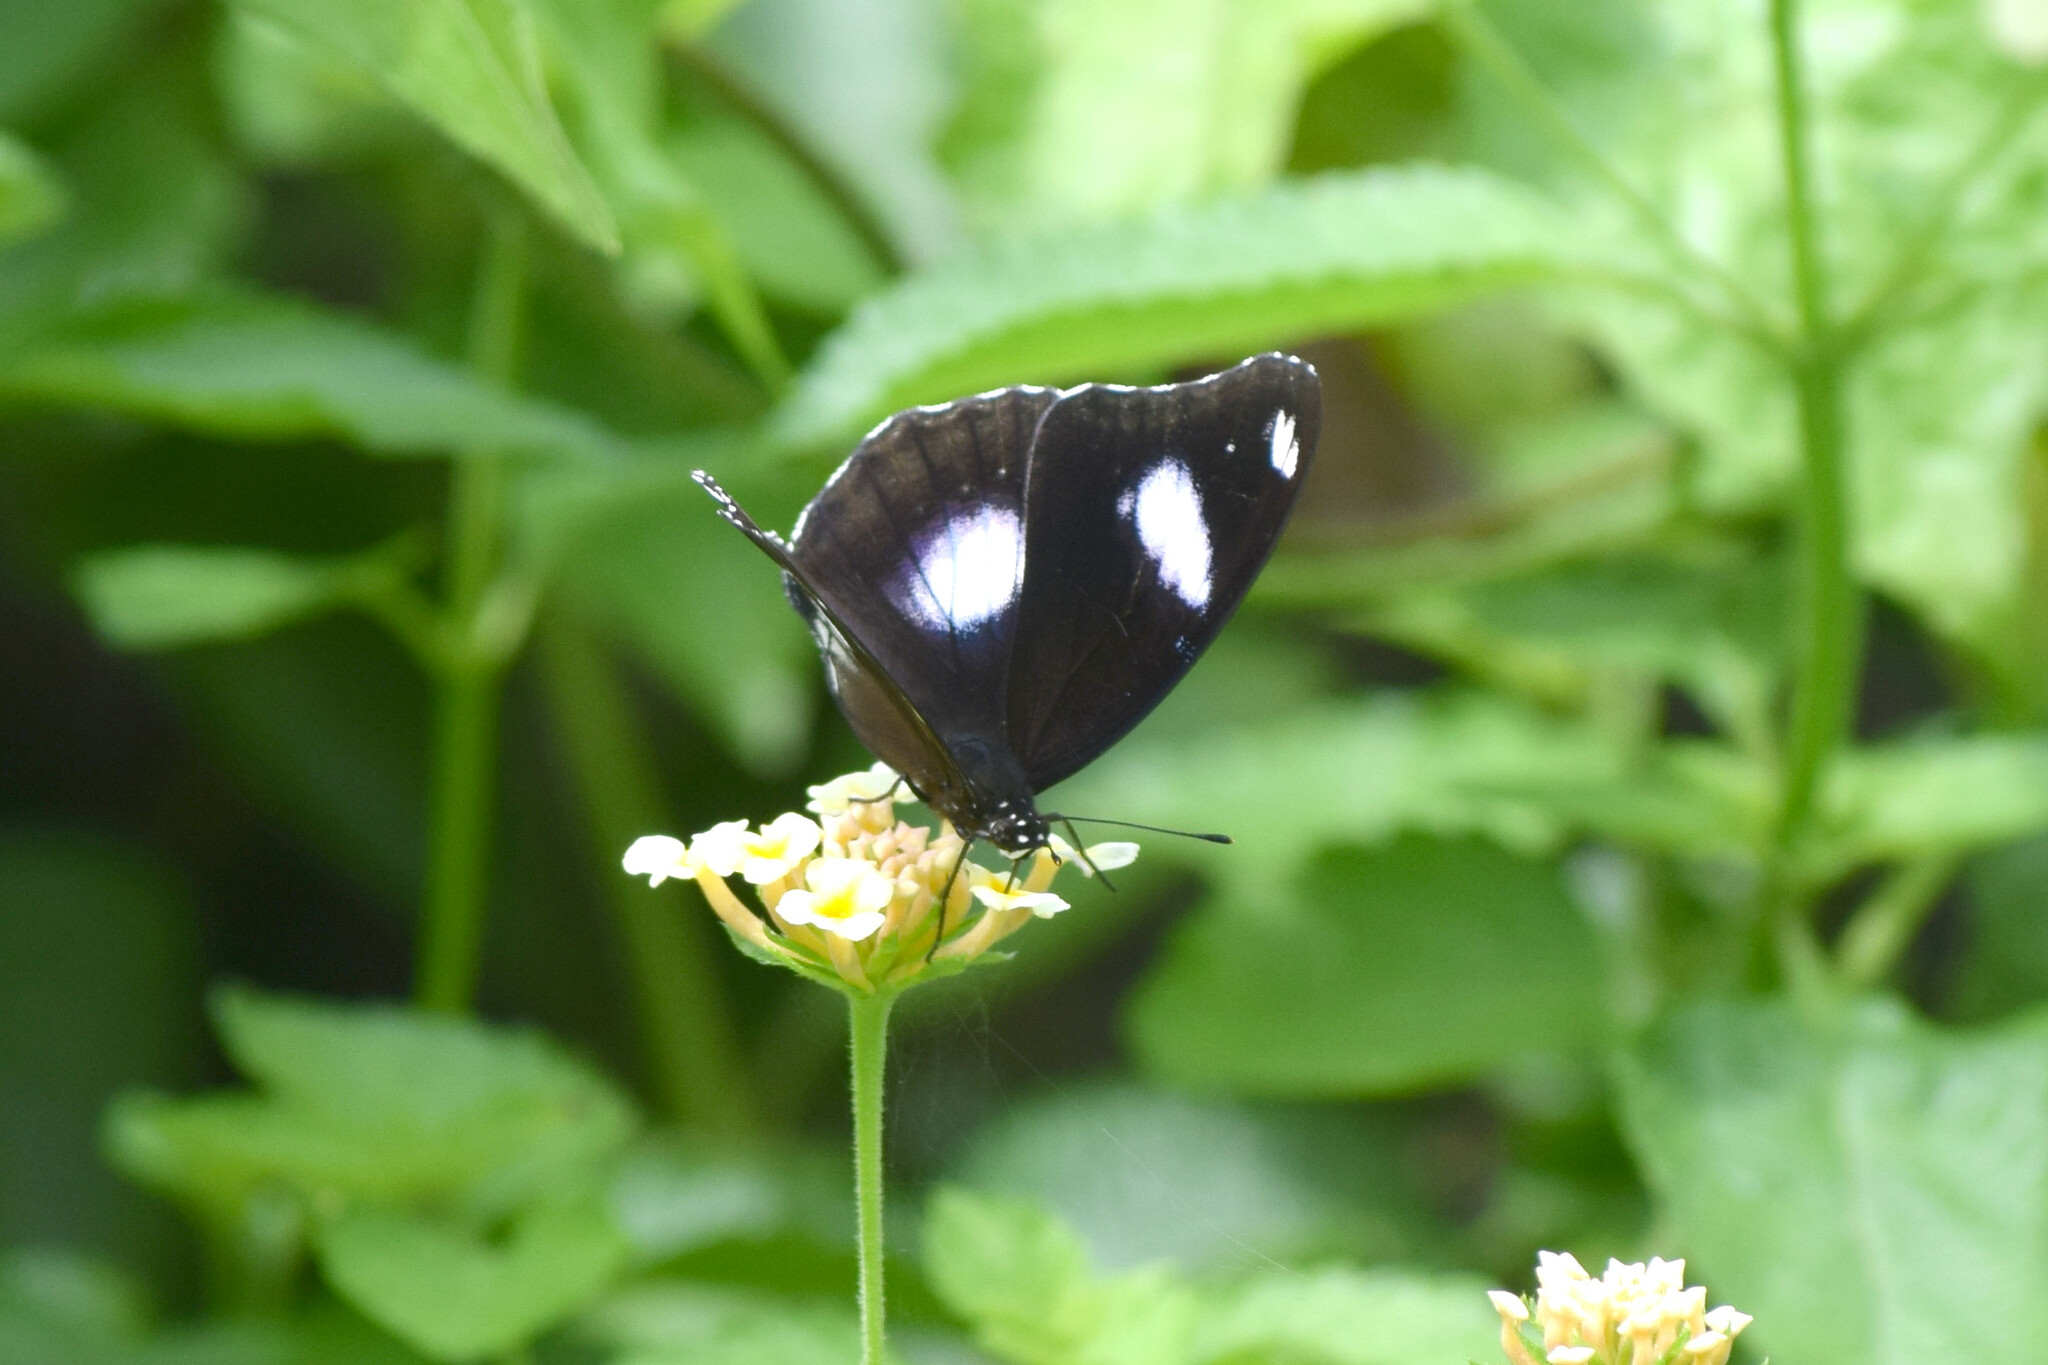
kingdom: Animalia
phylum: Arthropoda
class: Insecta
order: Lepidoptera
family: Nymphalidae
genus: Hypolimnas
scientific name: Hypolimnas bolina
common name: Great eggfly
